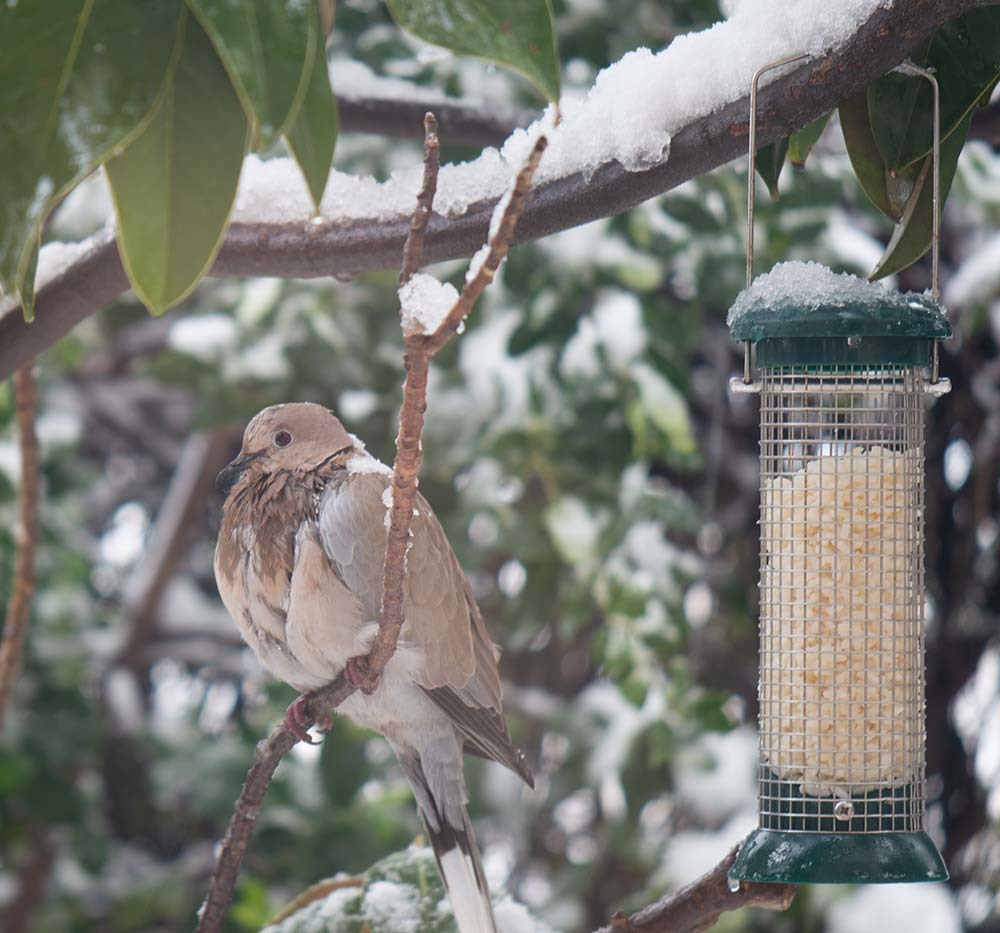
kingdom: Animalia
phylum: Chordata
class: Aves
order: Columbiformes
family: Columbidae
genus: Streptopelia
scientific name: Streptopelia decaocto
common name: Eurasian collared dove
